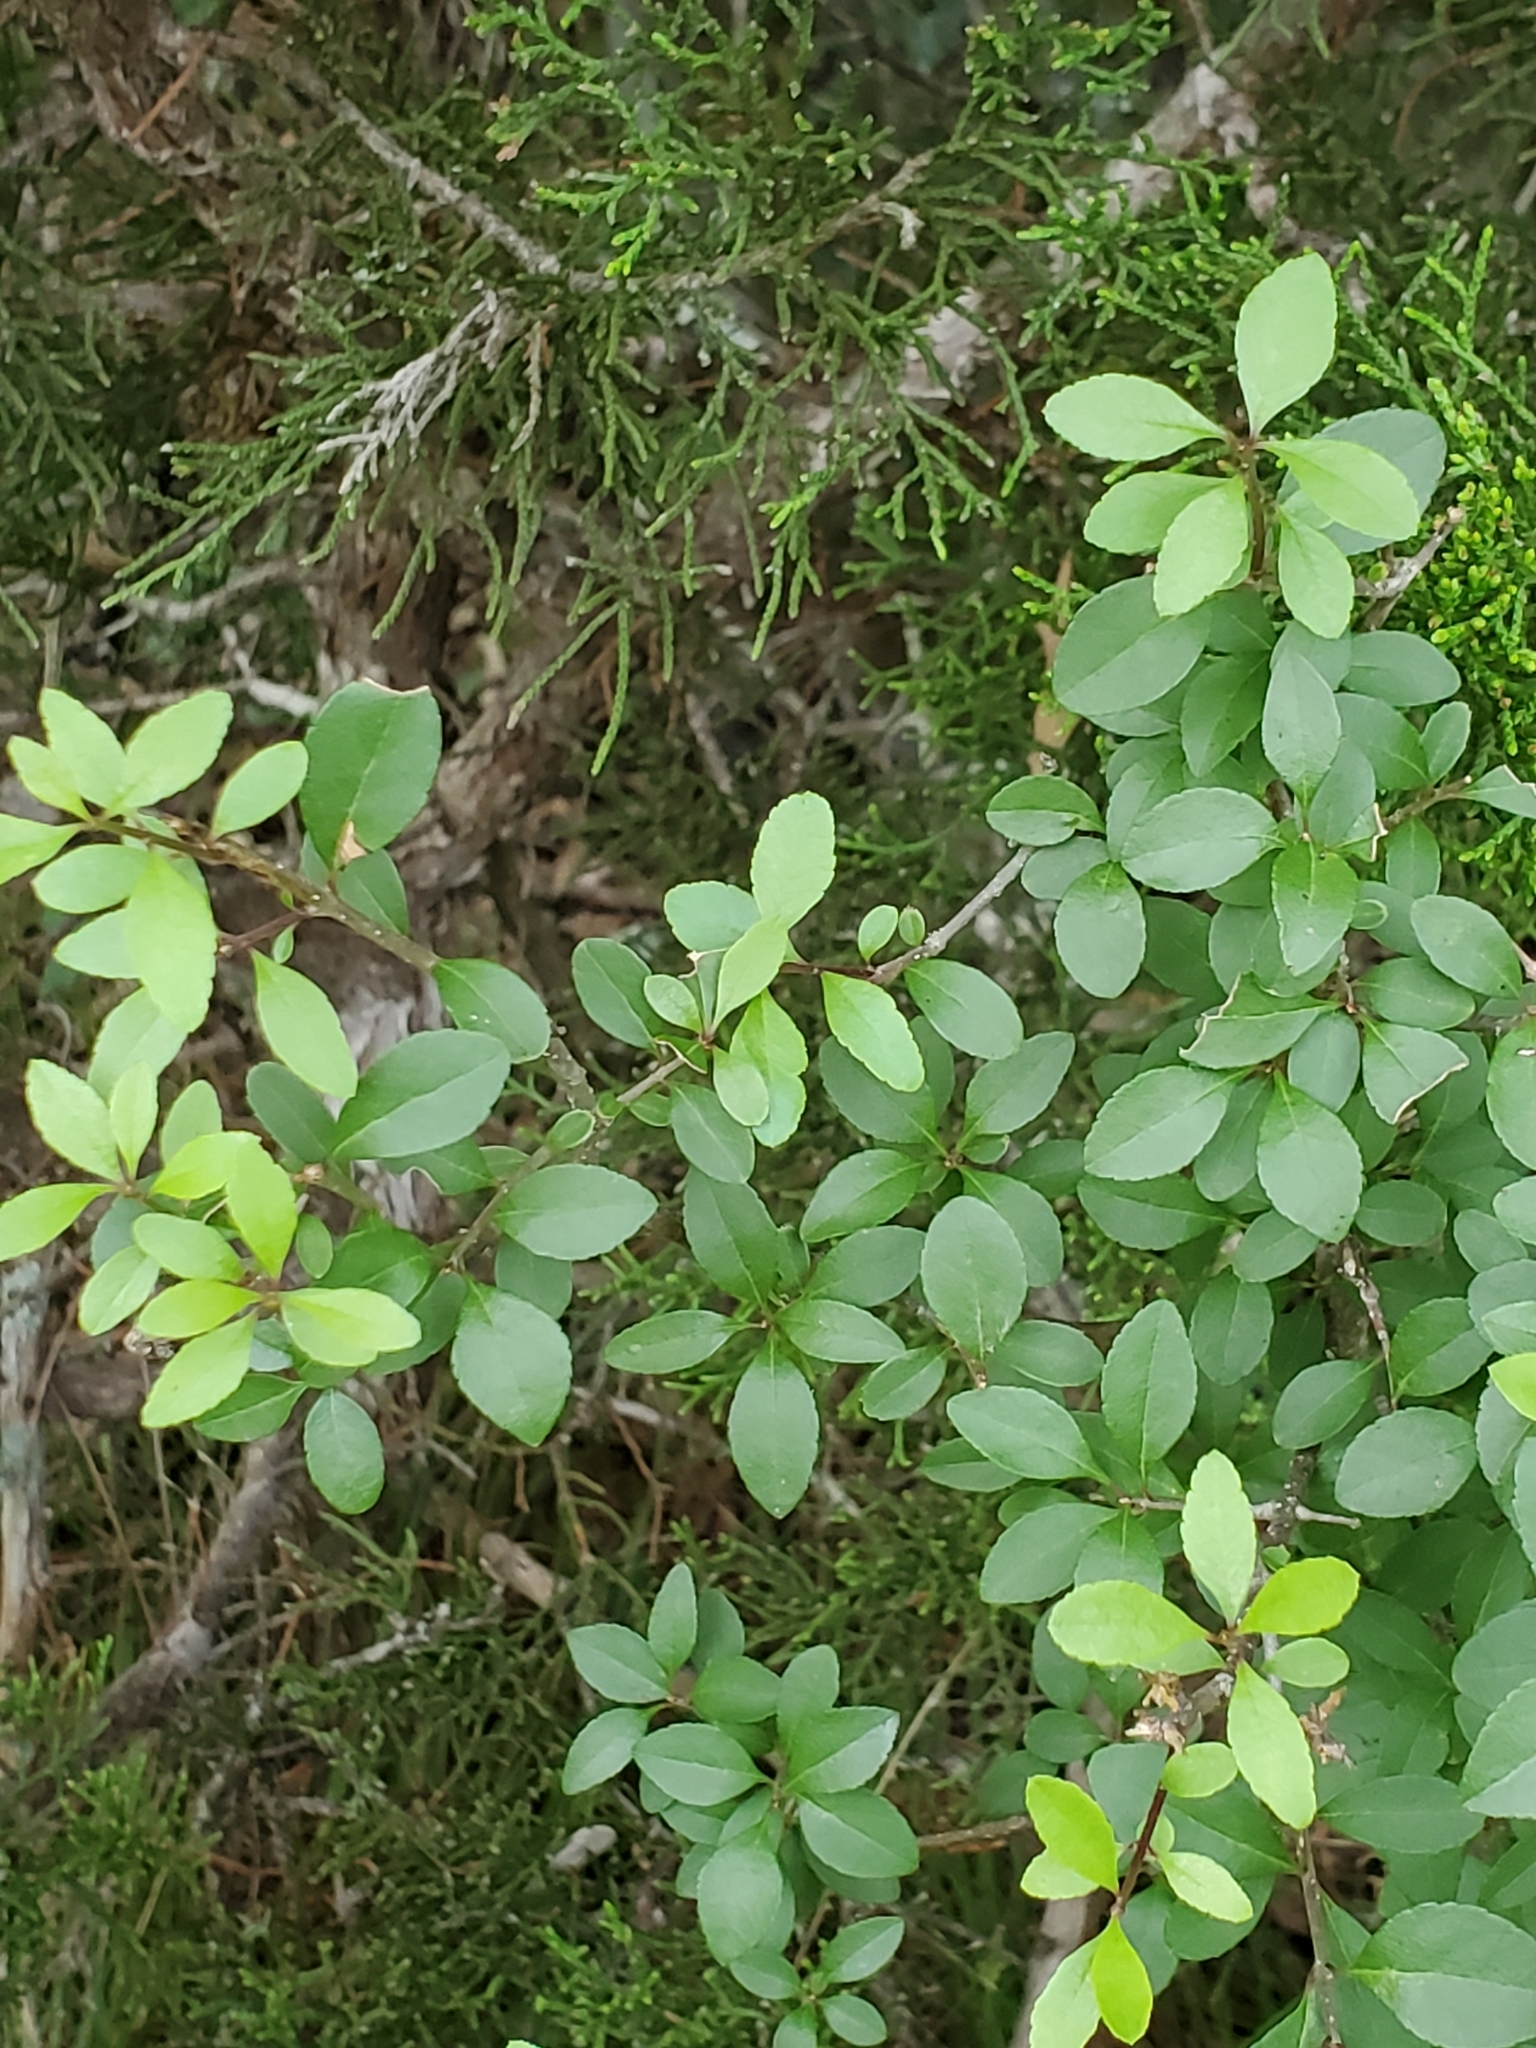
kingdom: Plantae
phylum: Tracheophyta
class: Magnoliopsida
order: Lamiales
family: Oleaceae
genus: Forestiera
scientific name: Forestiera pubescens
